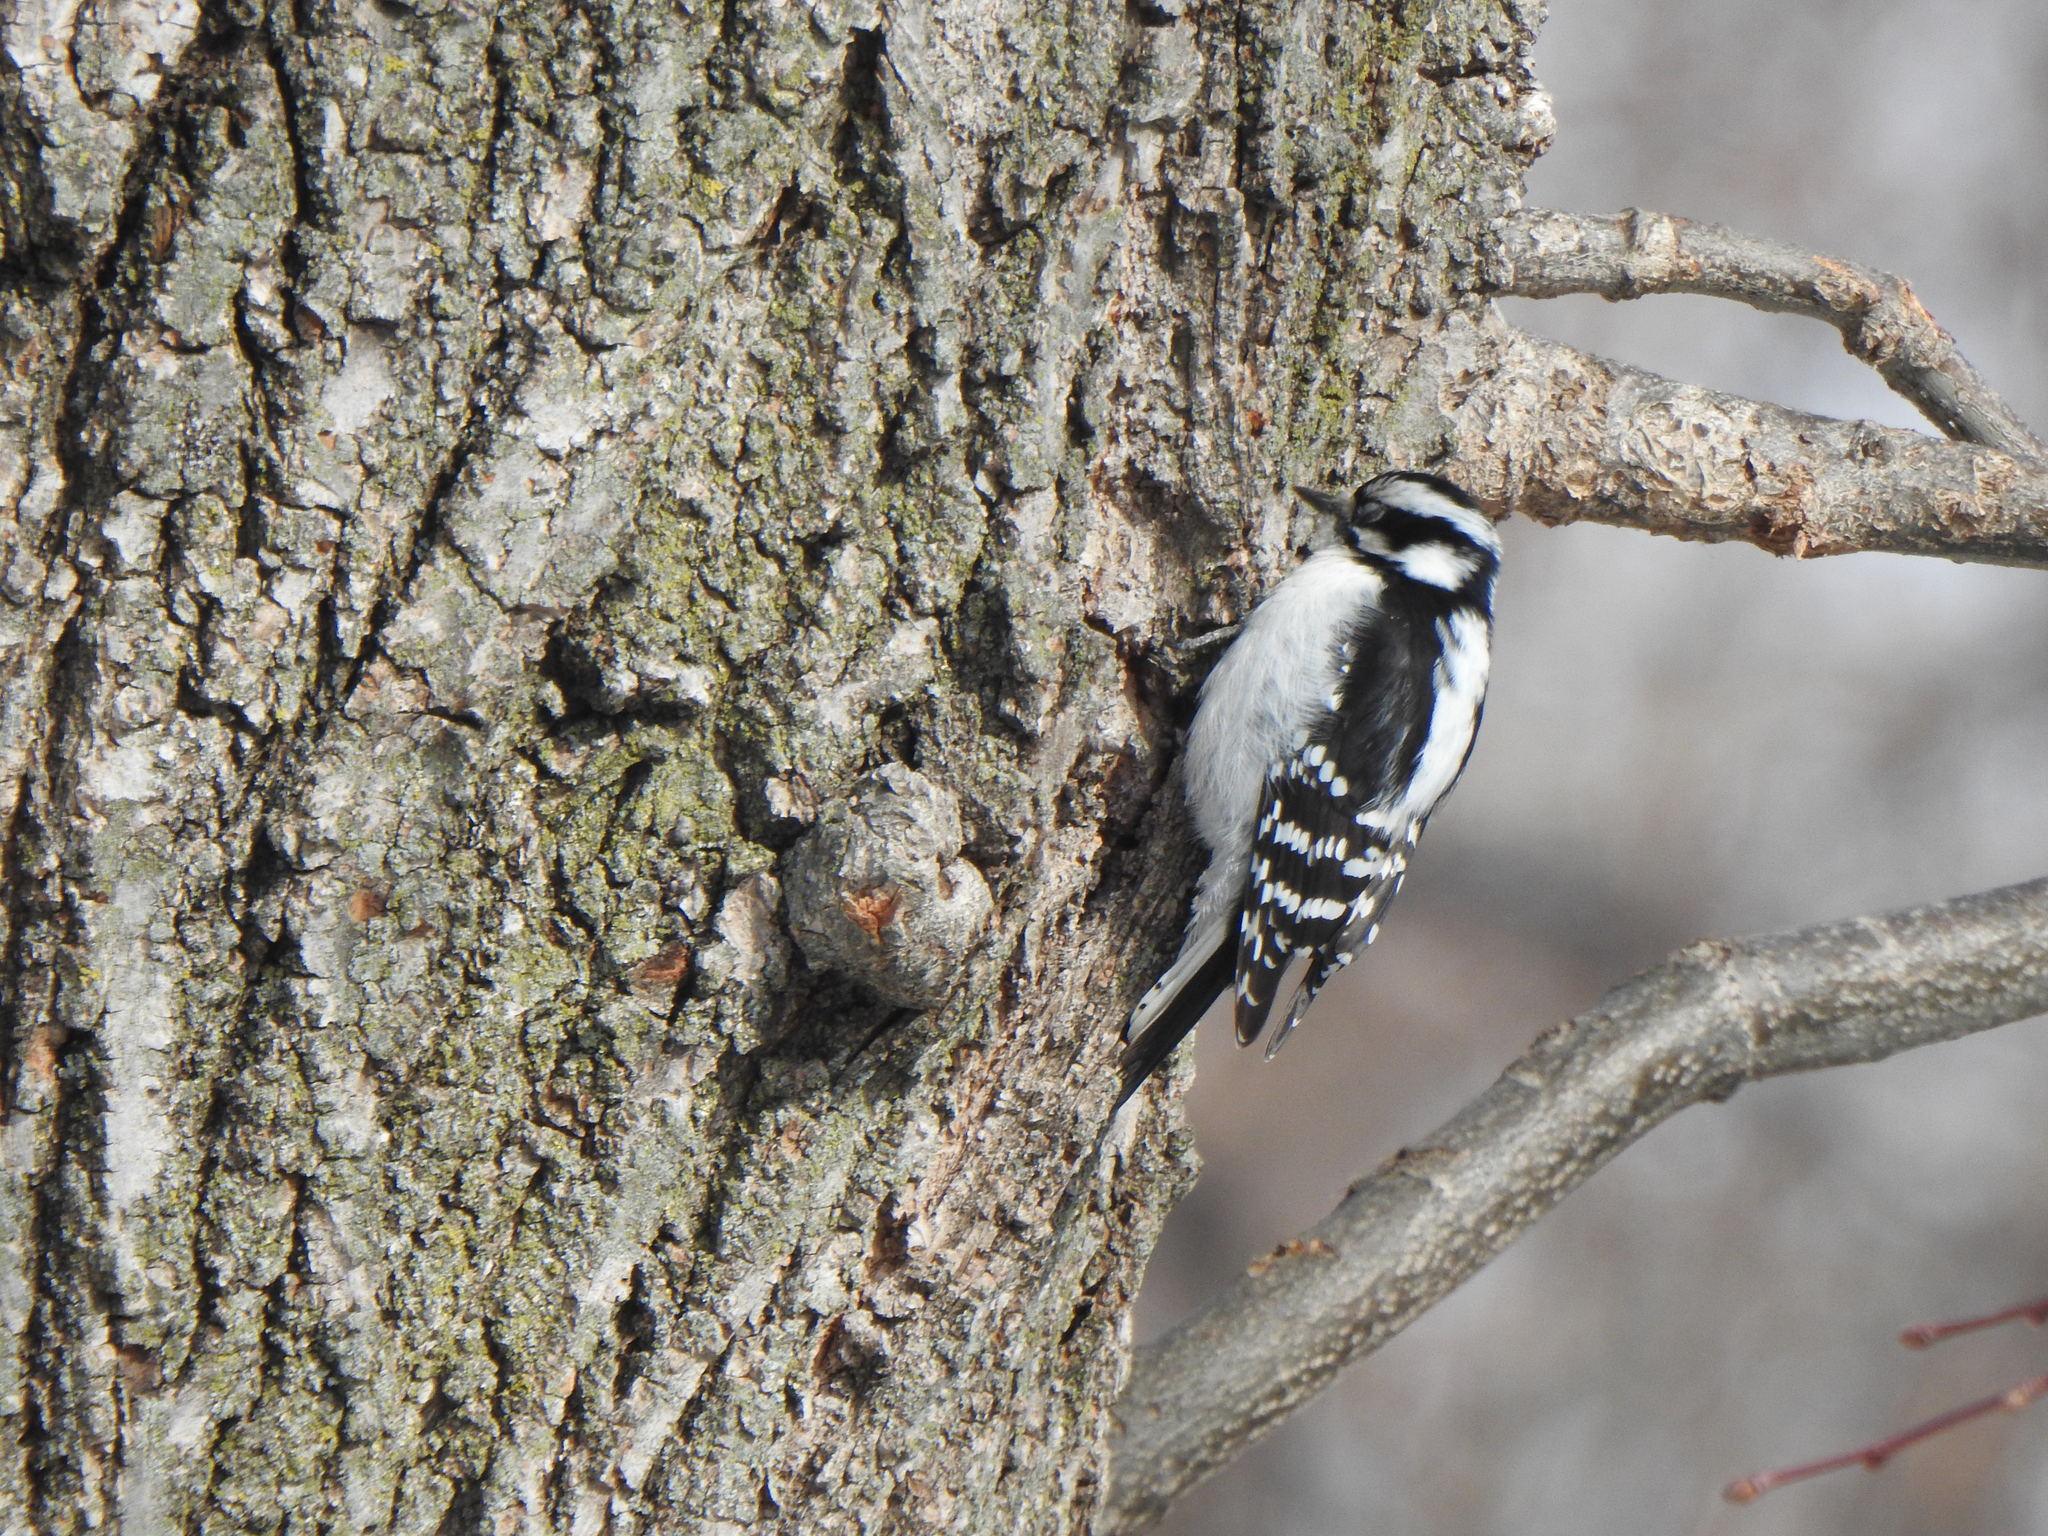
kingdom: Animalia
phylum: Chordata
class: Aves
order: Piciformes
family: Picidae
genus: Dryobates
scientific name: Dryobates pubescens
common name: Downy woodpecker
